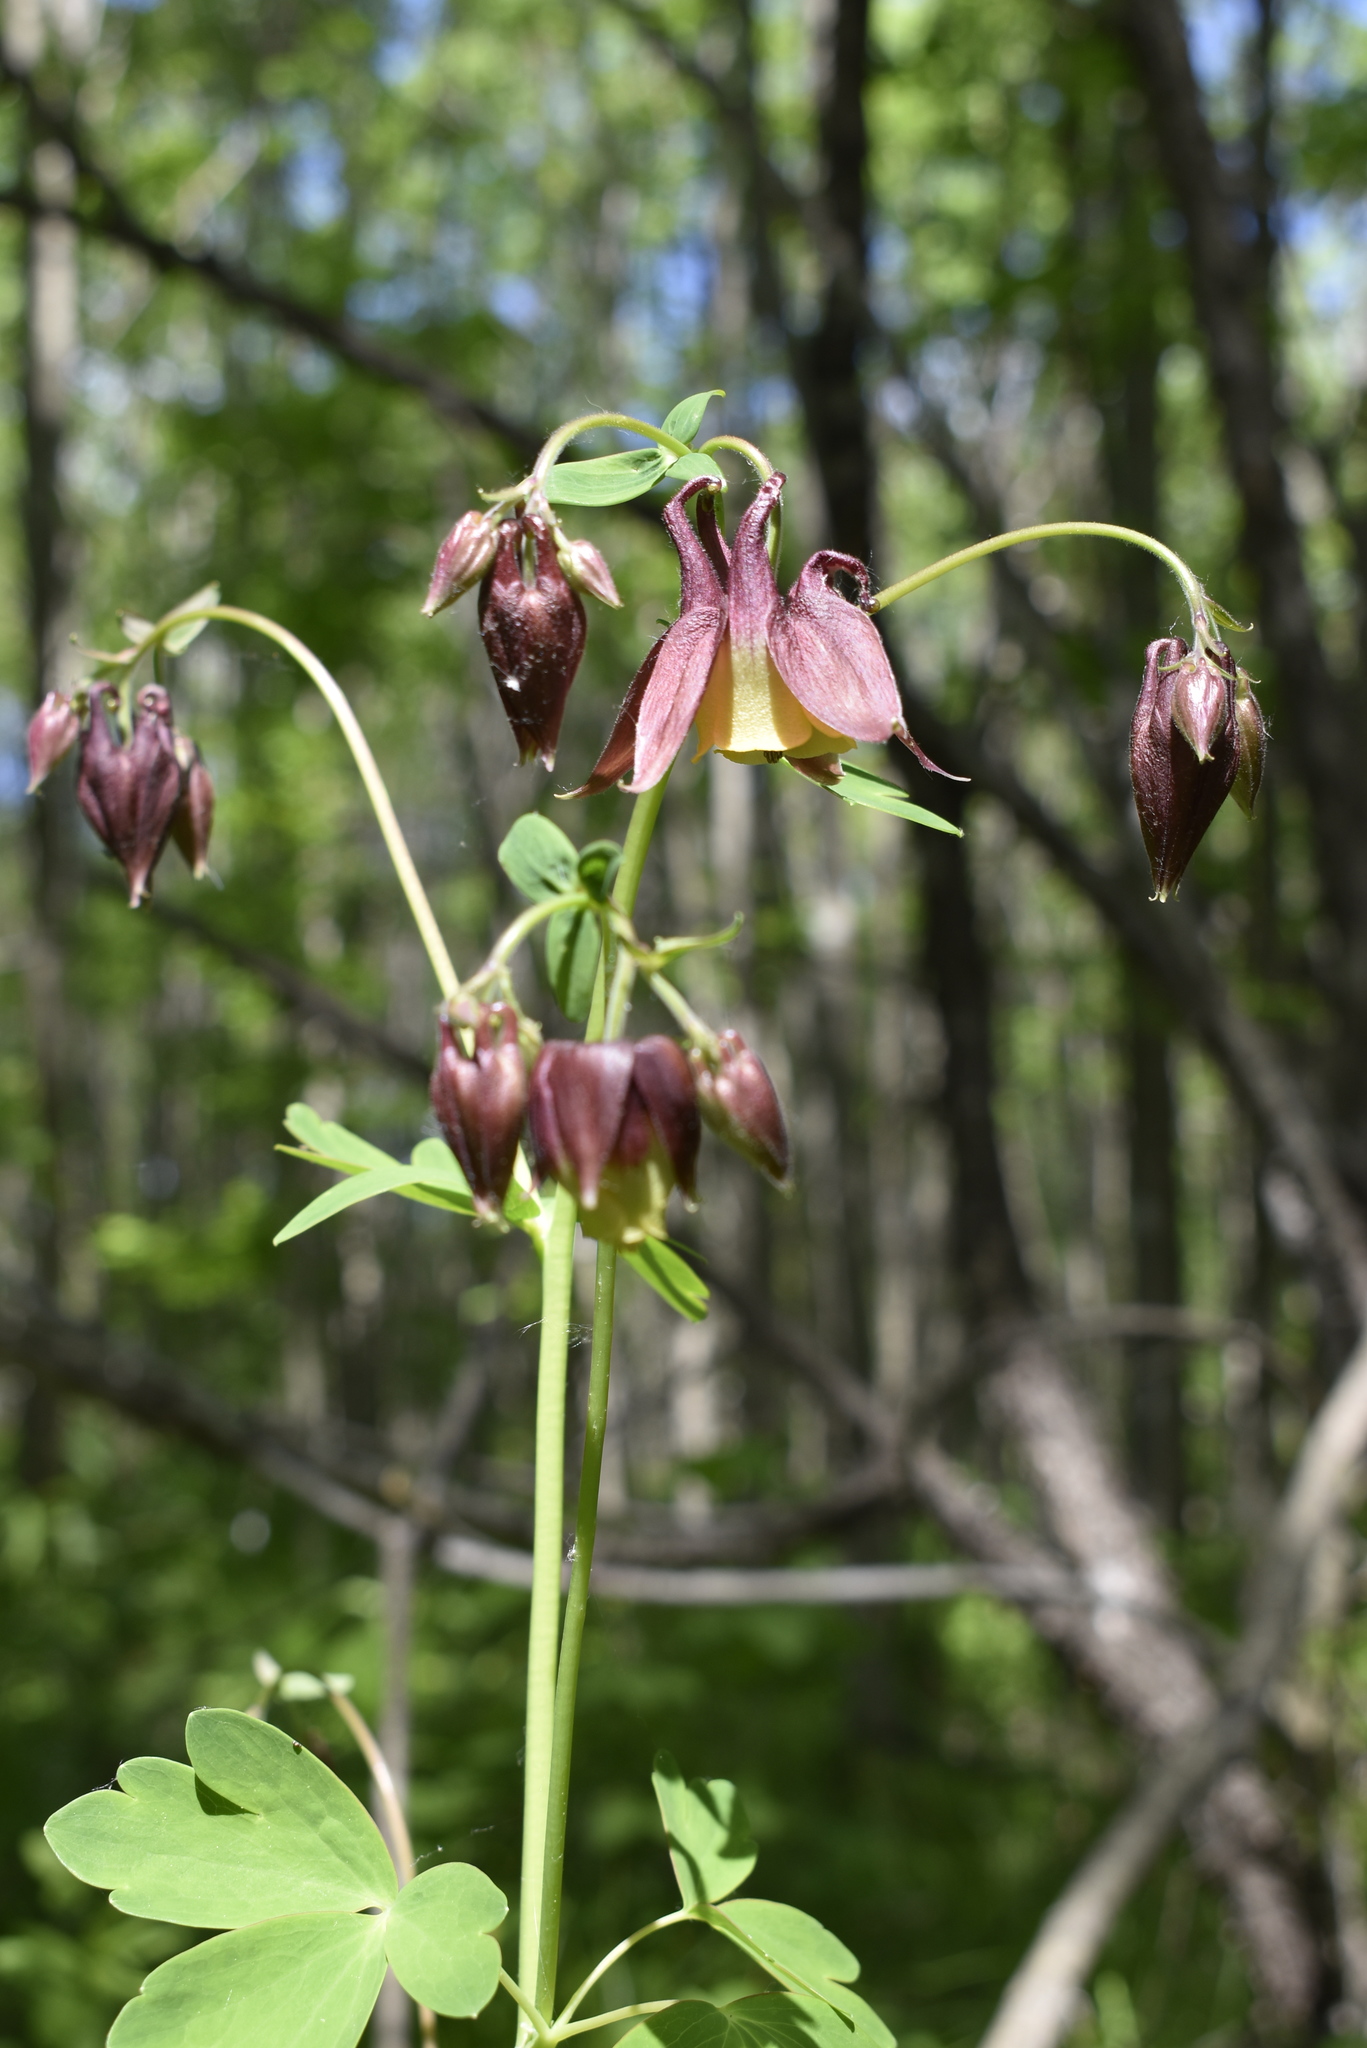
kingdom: Plantae
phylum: Tracheophyta
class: Magnoliopsida
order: Ranunculales
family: Ranunculaceae
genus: Aquilegia
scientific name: Aquilegia oxysepala
